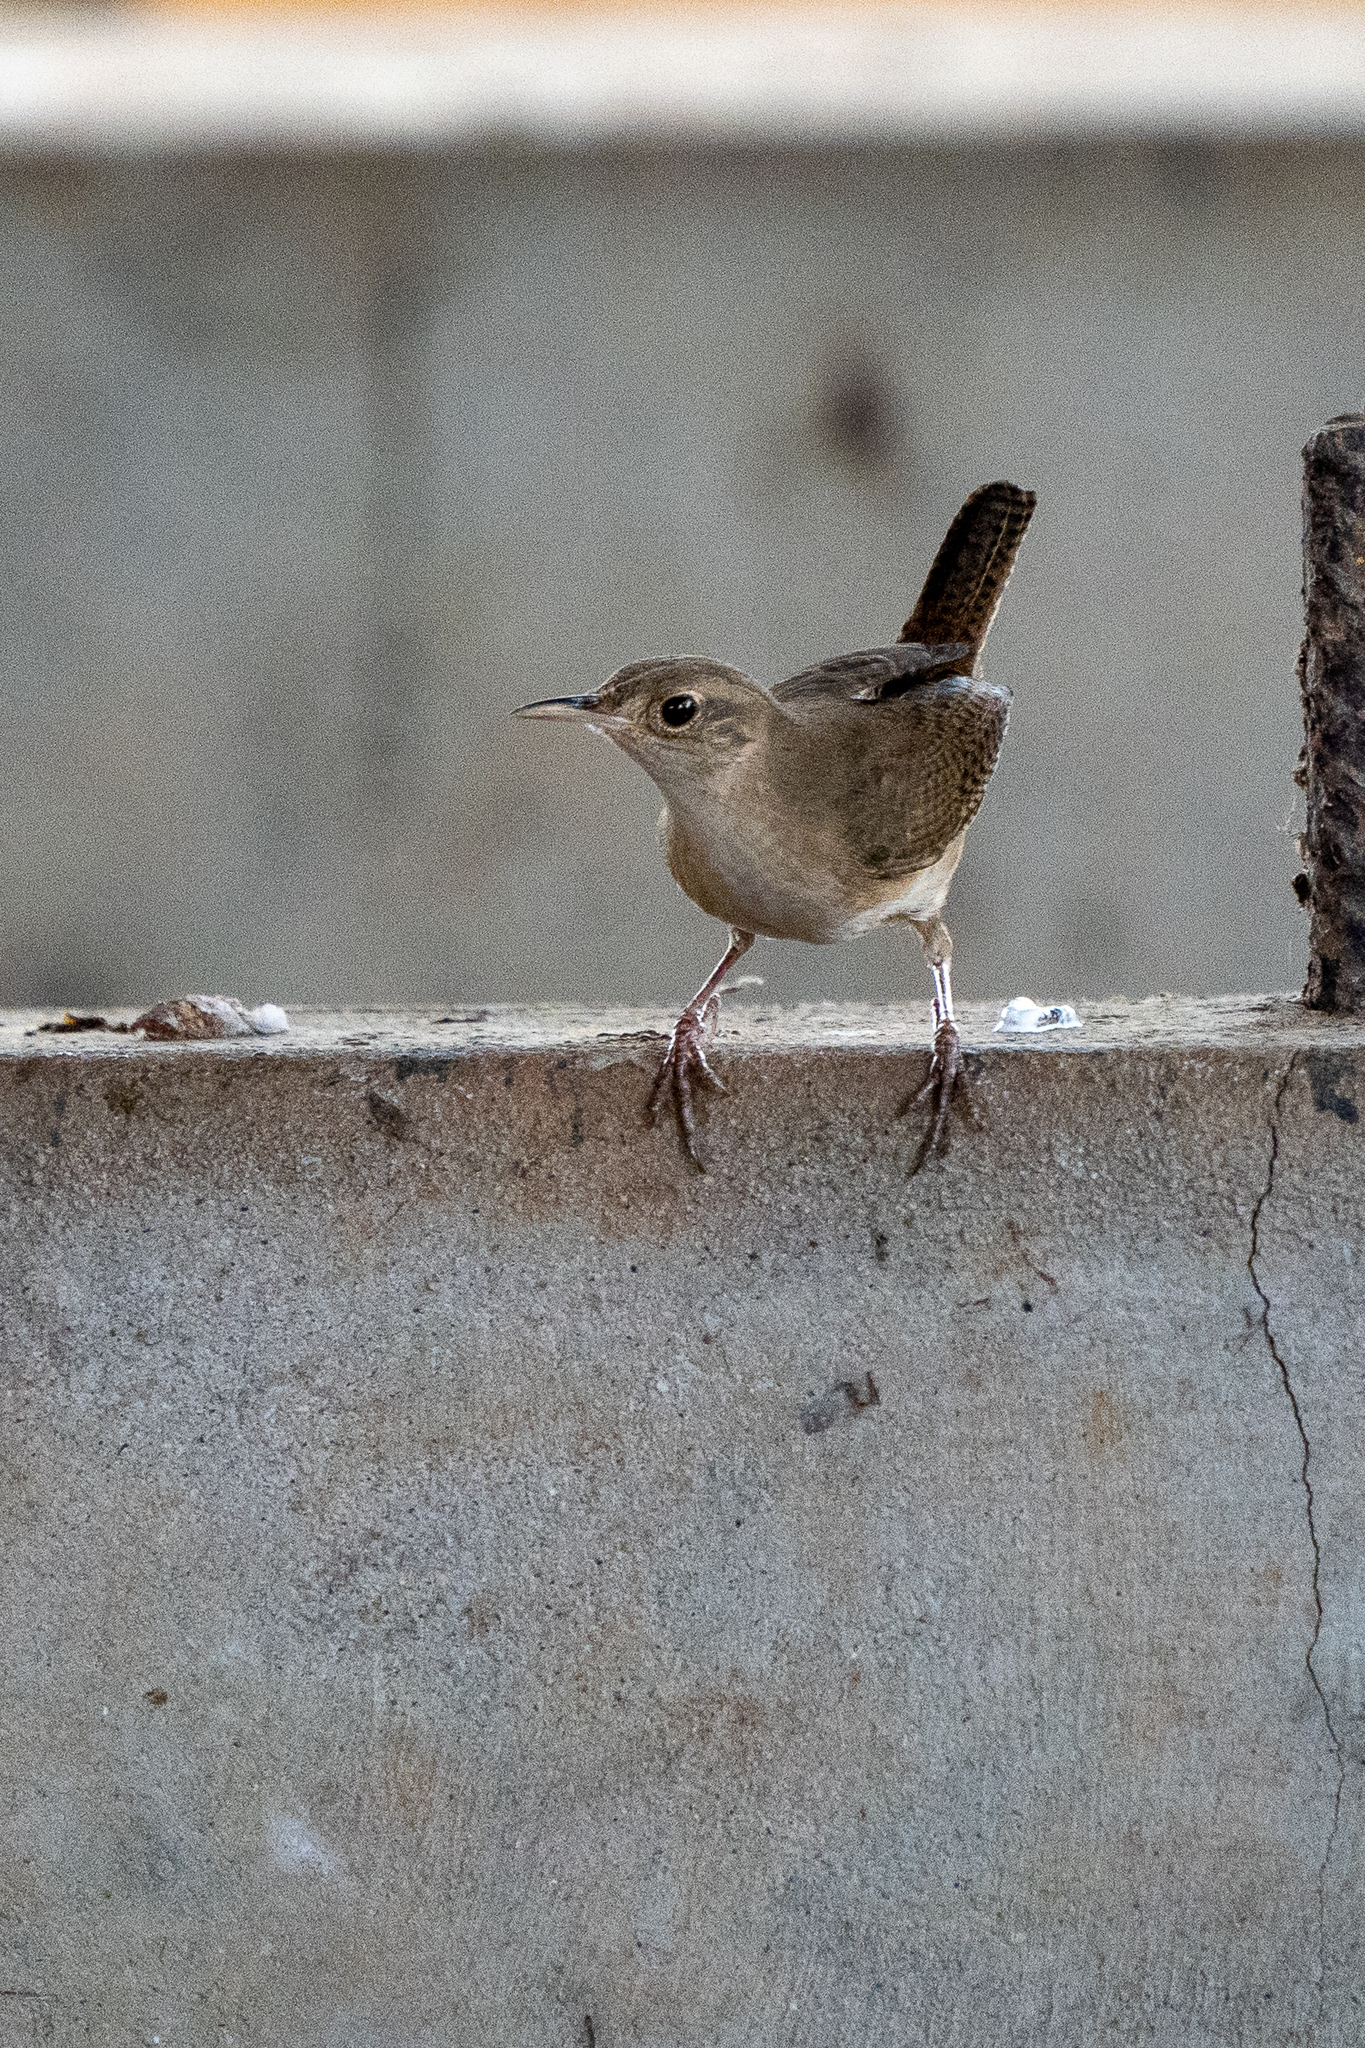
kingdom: Animalia
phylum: Chordata
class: Aves
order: Passeriformes
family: Troglodytidae
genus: Troglodytes
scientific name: Troglodytes aedon
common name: House wren
